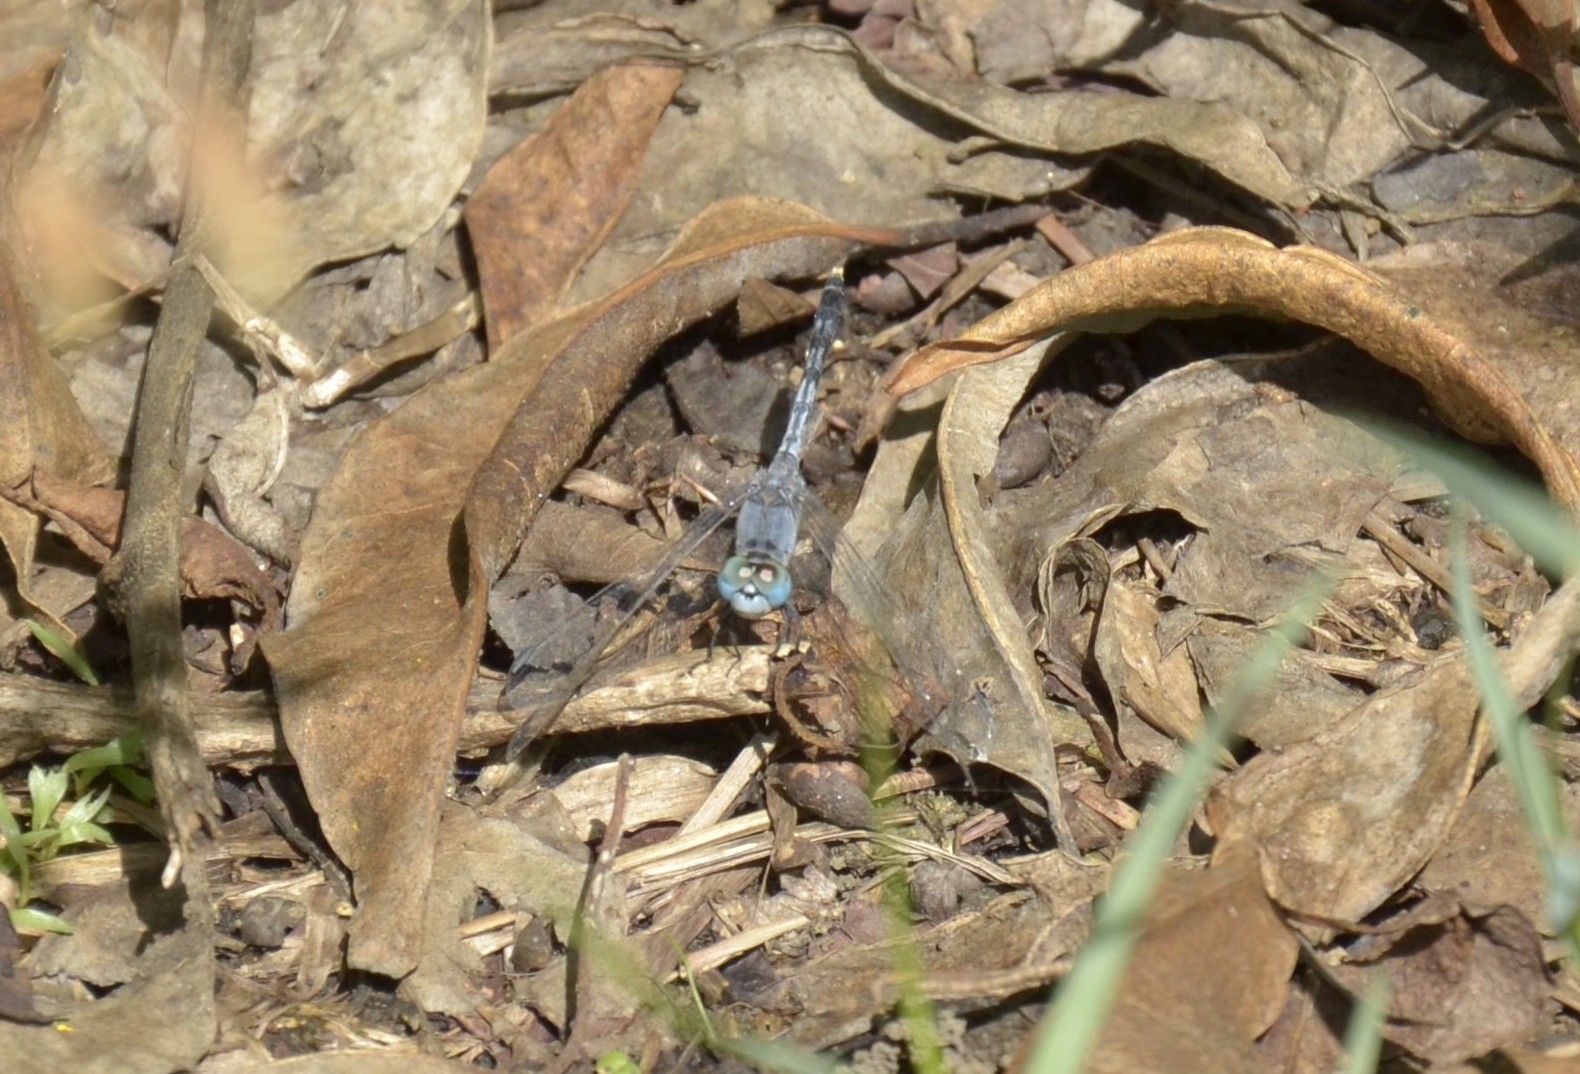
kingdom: Animalia
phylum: Arthropoda
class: Insecta
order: Odonata
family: Libellulidae
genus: Diplacodes
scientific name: Diplacodes trivialis
